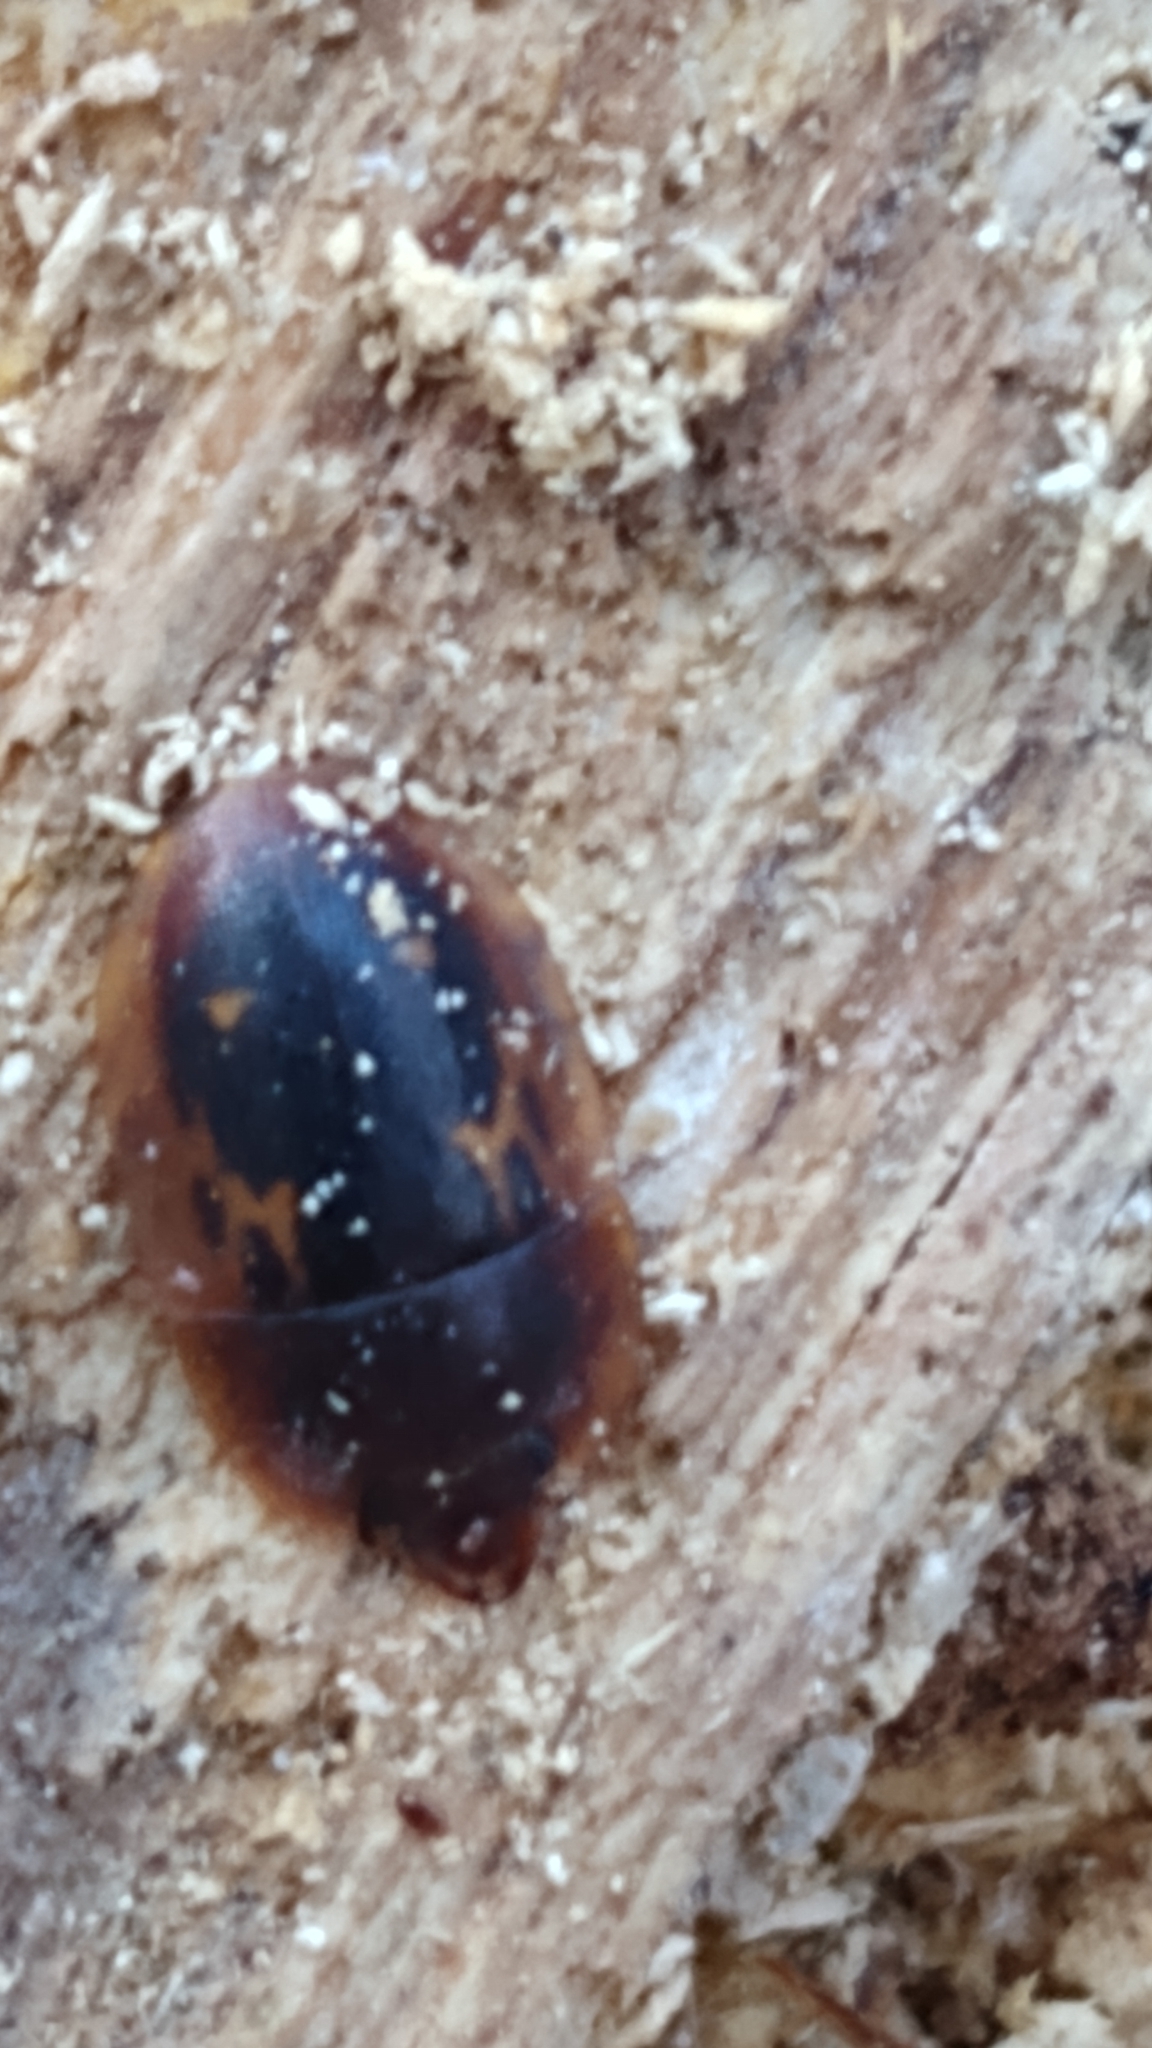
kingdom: Animalia
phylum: Arthropoda
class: Insecta
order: Coleoptera
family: Nitidulidae
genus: Prometopia
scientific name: Prometopia sexmaculata
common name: Six-spotted sap-feeding beetle
